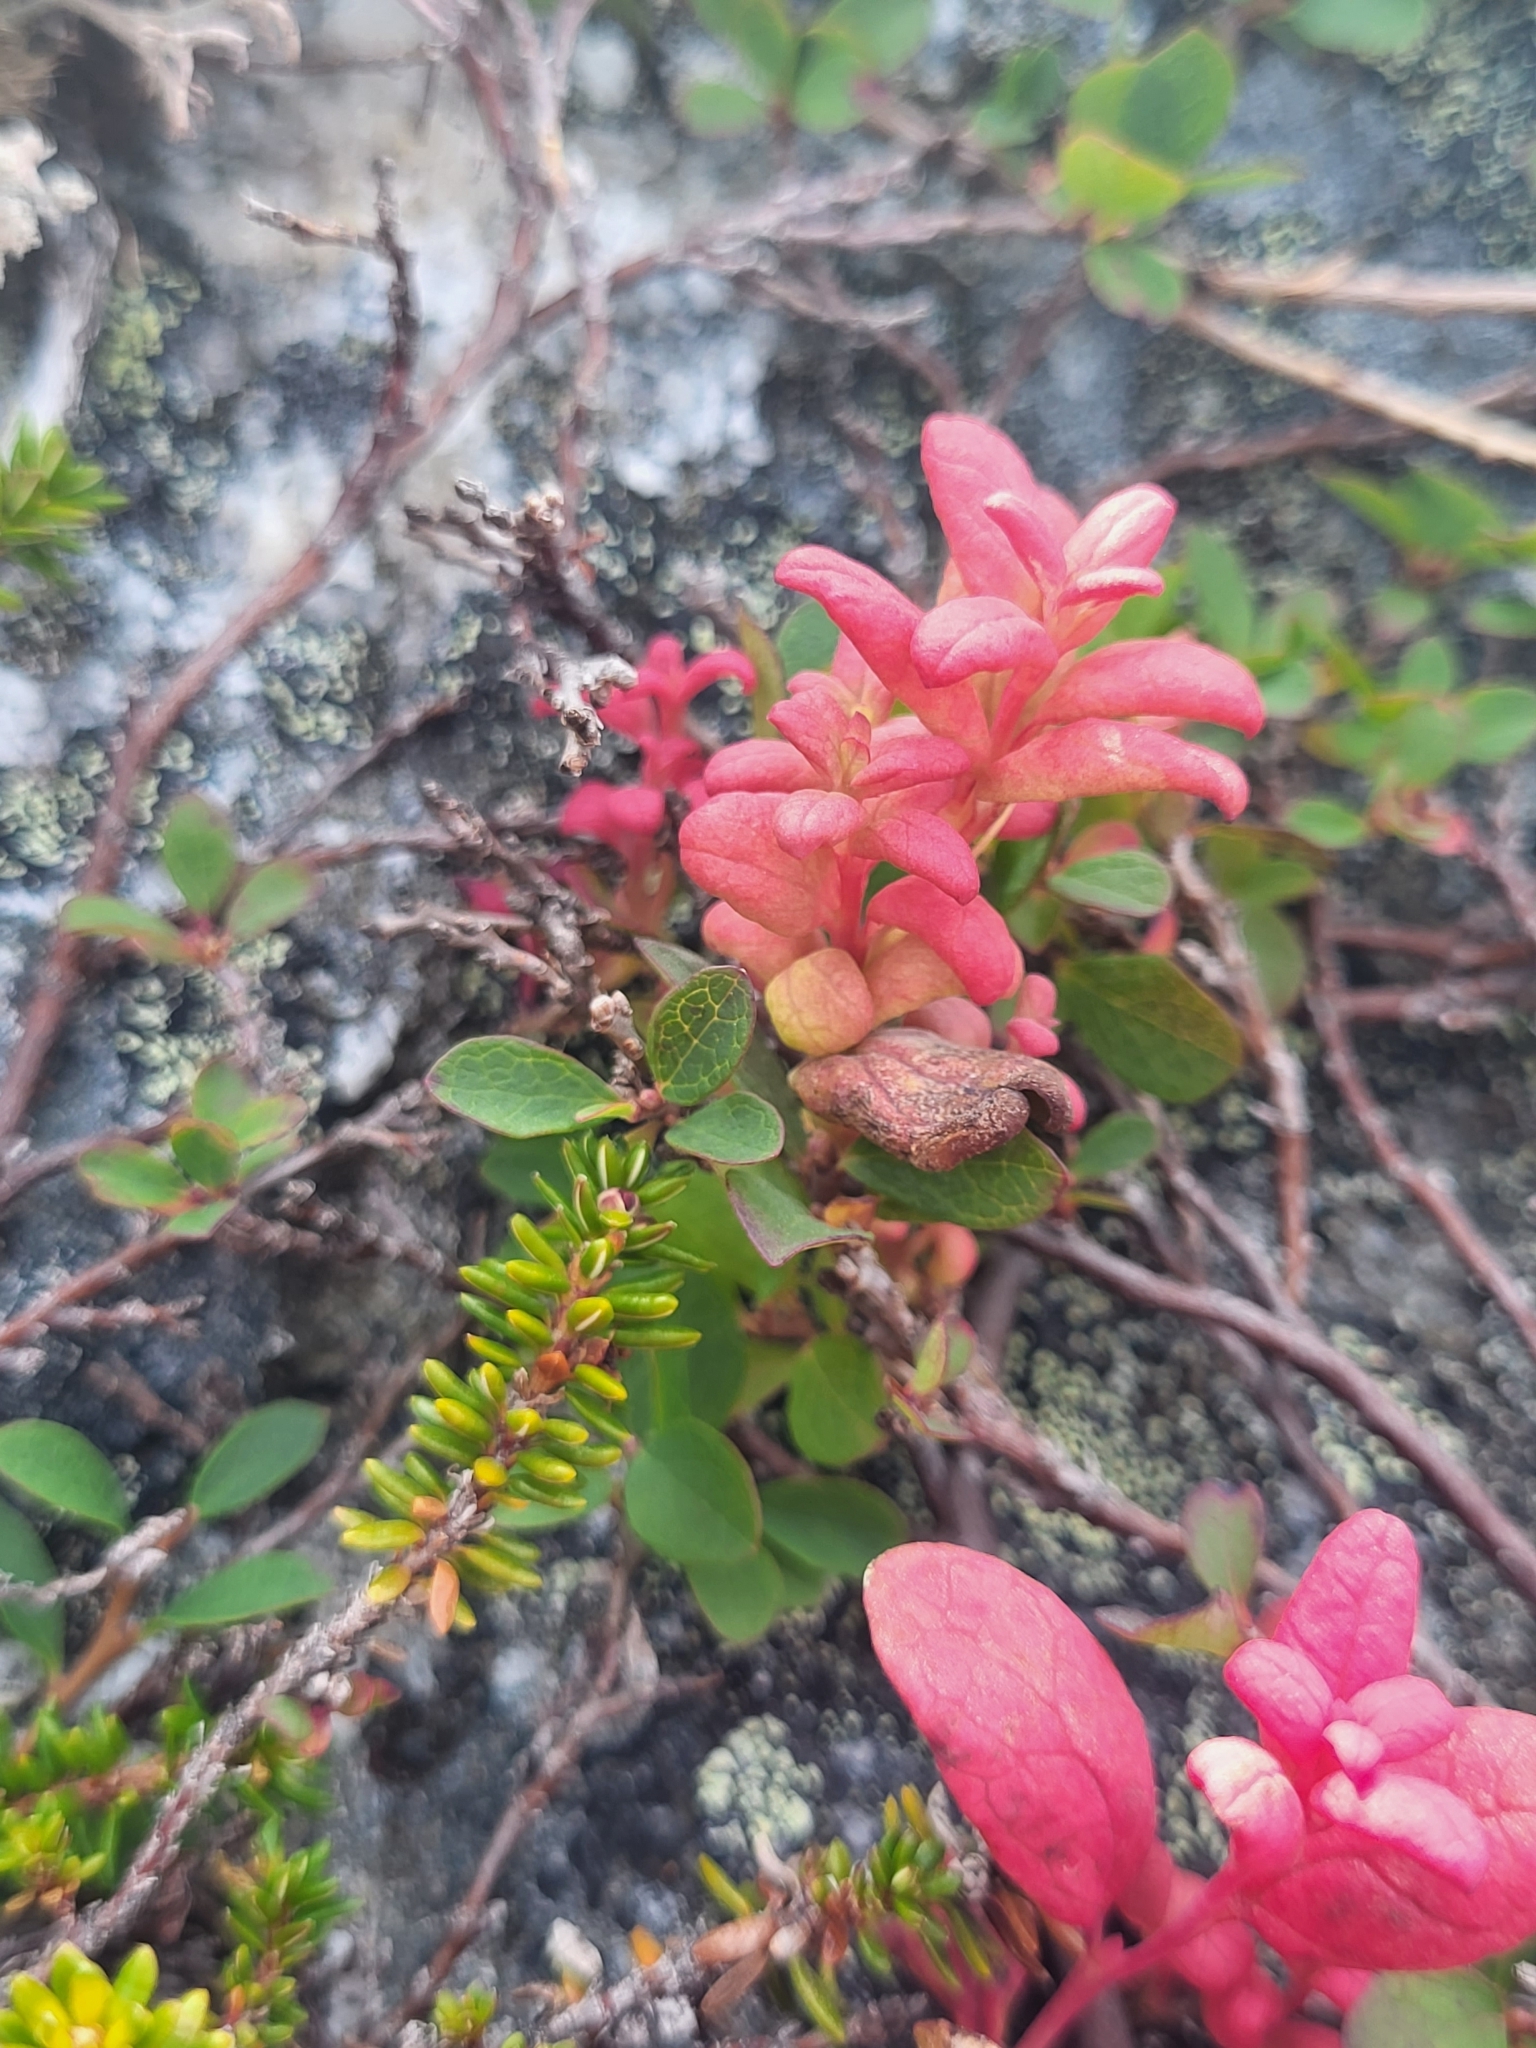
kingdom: Fungi
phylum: Basidiomycota
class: Exobasidiomycetes
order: Exobasidiales
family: Exobasidiaceae
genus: Exobasidium
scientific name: Exobasidium vaccinii-uliginosi
